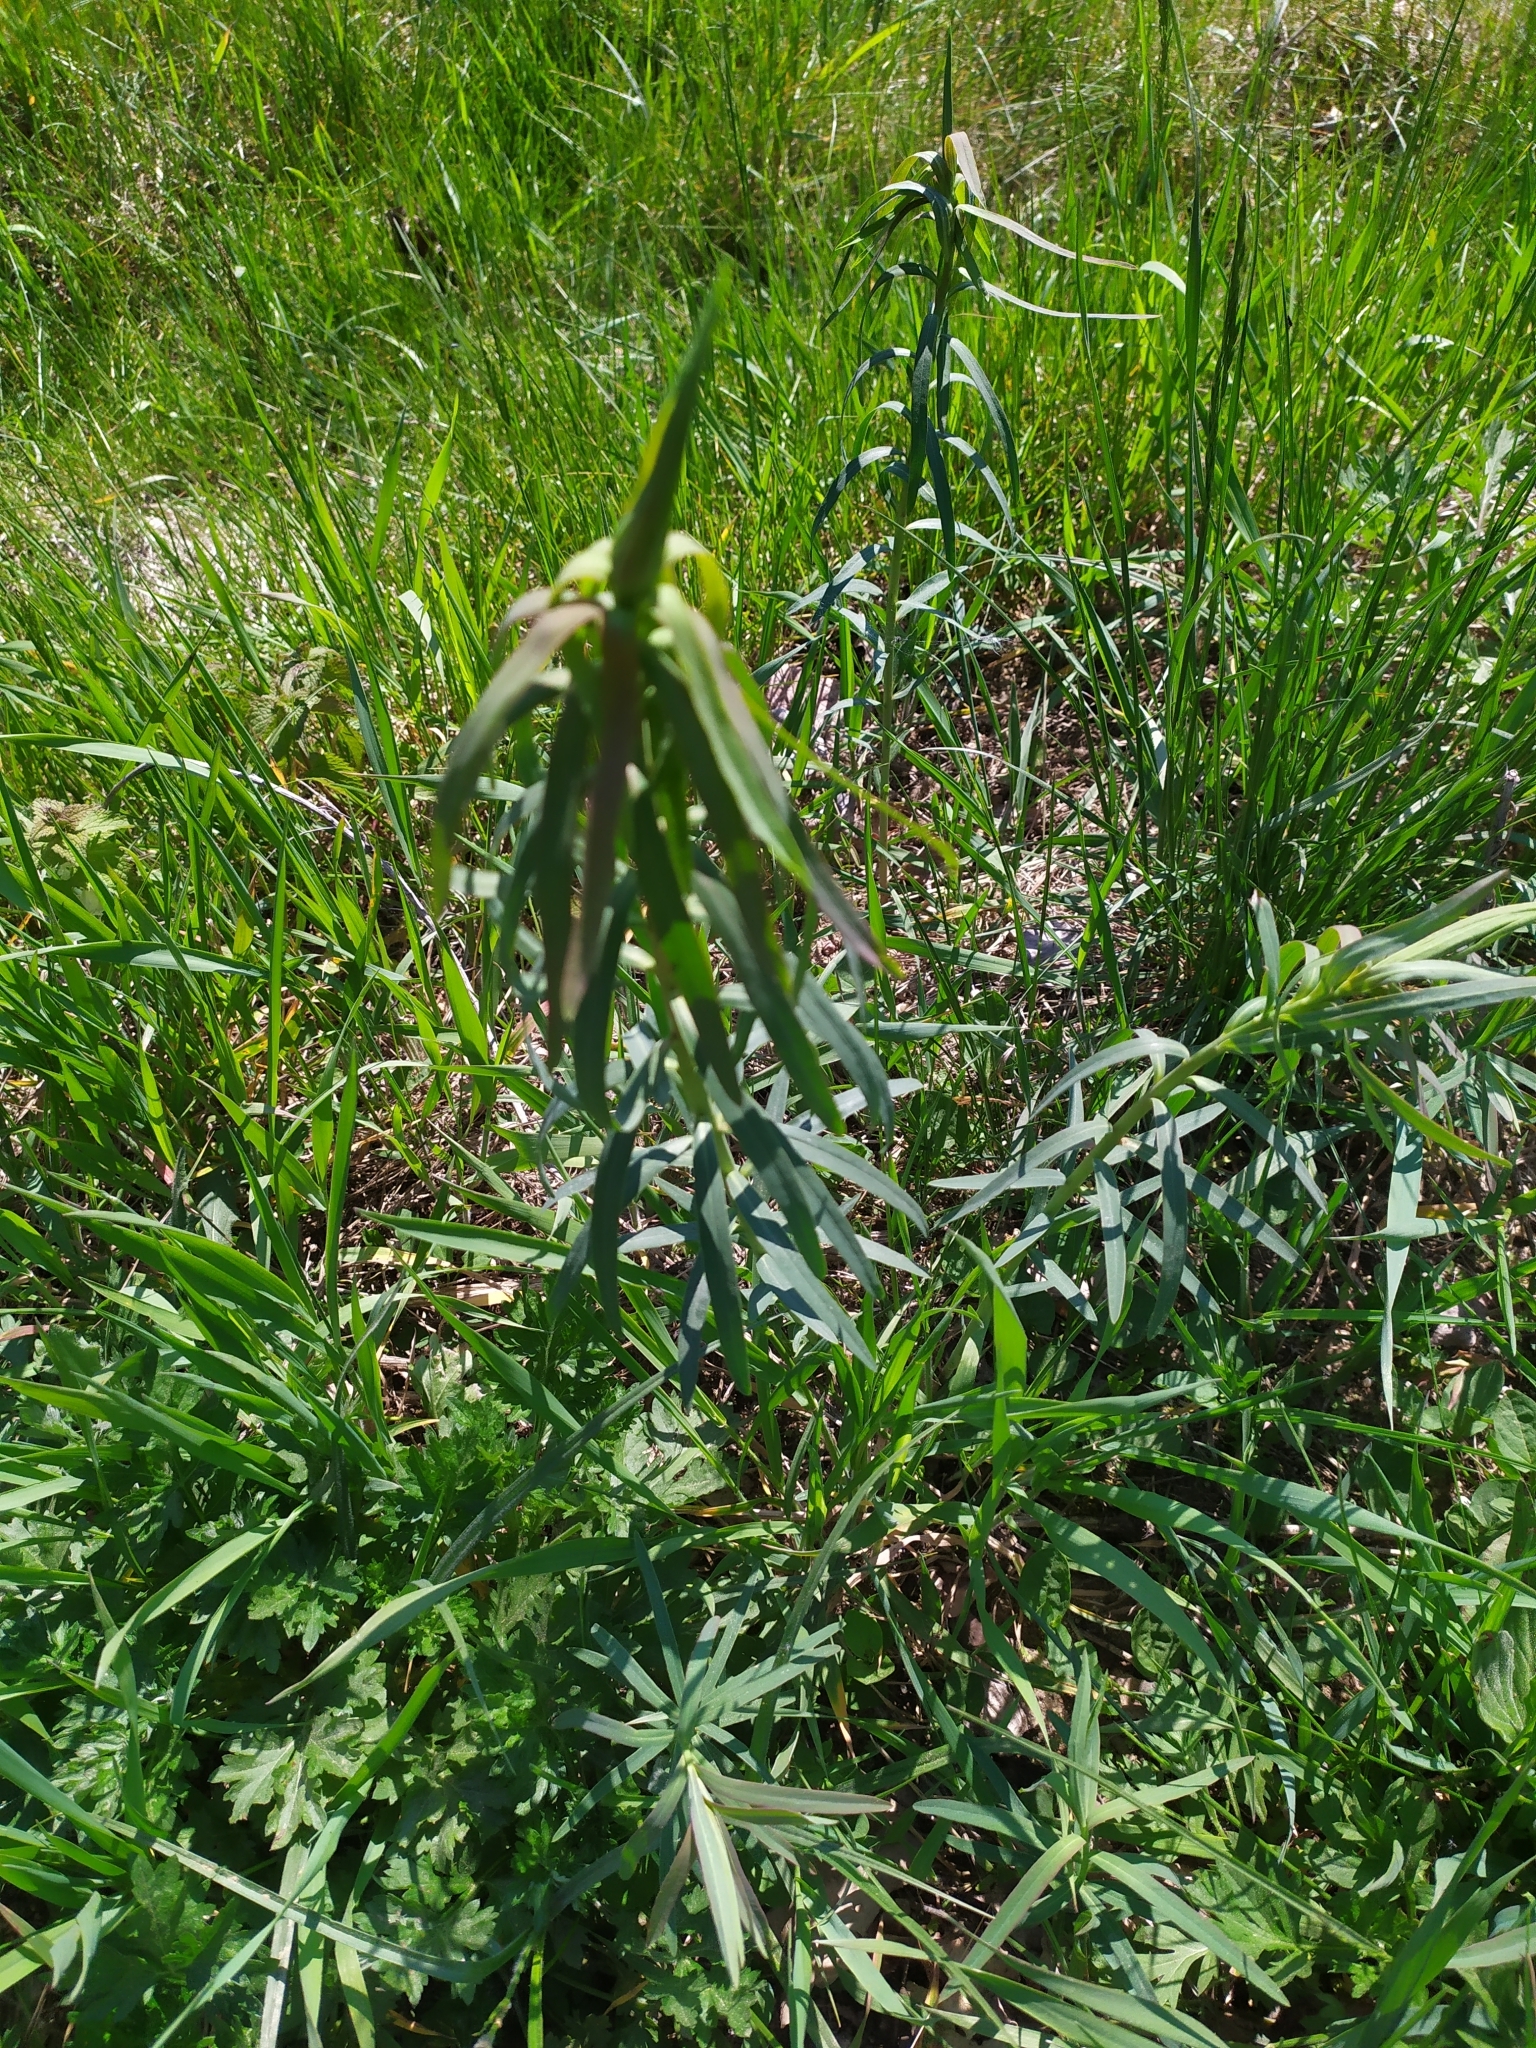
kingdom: Plantae
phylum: Tracheophyta
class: Magnoliopsida
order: Malpighiales
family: Euphorbiaceae
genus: Euphorbia
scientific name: Euphorbia virgata
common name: Leafy spurge
